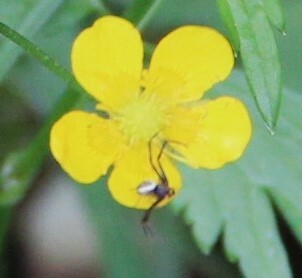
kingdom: Animalia
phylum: Arthropoda
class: Arachnida
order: Araneae
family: Thomisidae
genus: Misumena
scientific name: Misumena vatia
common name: Goldenrod crab spider
